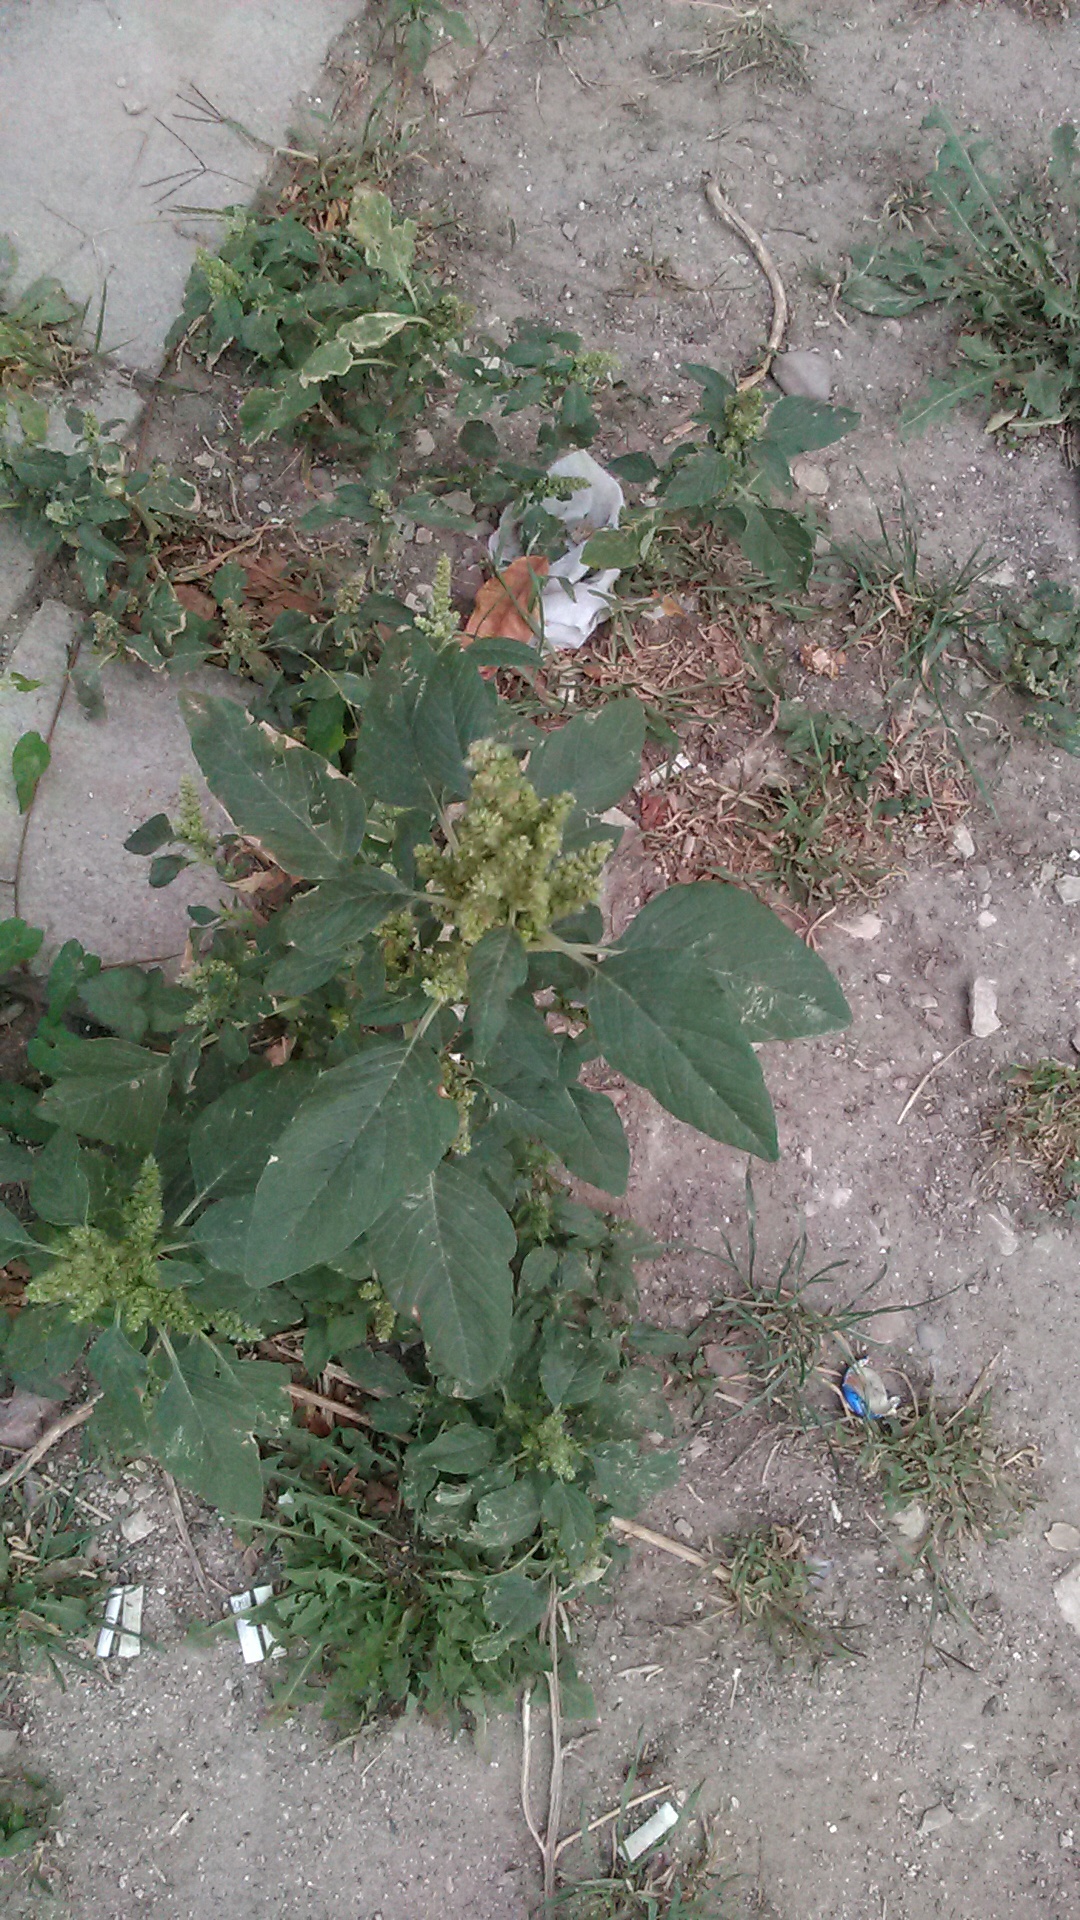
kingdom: Plantae
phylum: Tracheophyta
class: Magnoliopsida
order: Caryophyllales
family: Amaranthaceae
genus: Amaranthus
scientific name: Amaranthus retroflexus
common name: Redroot amaranth
